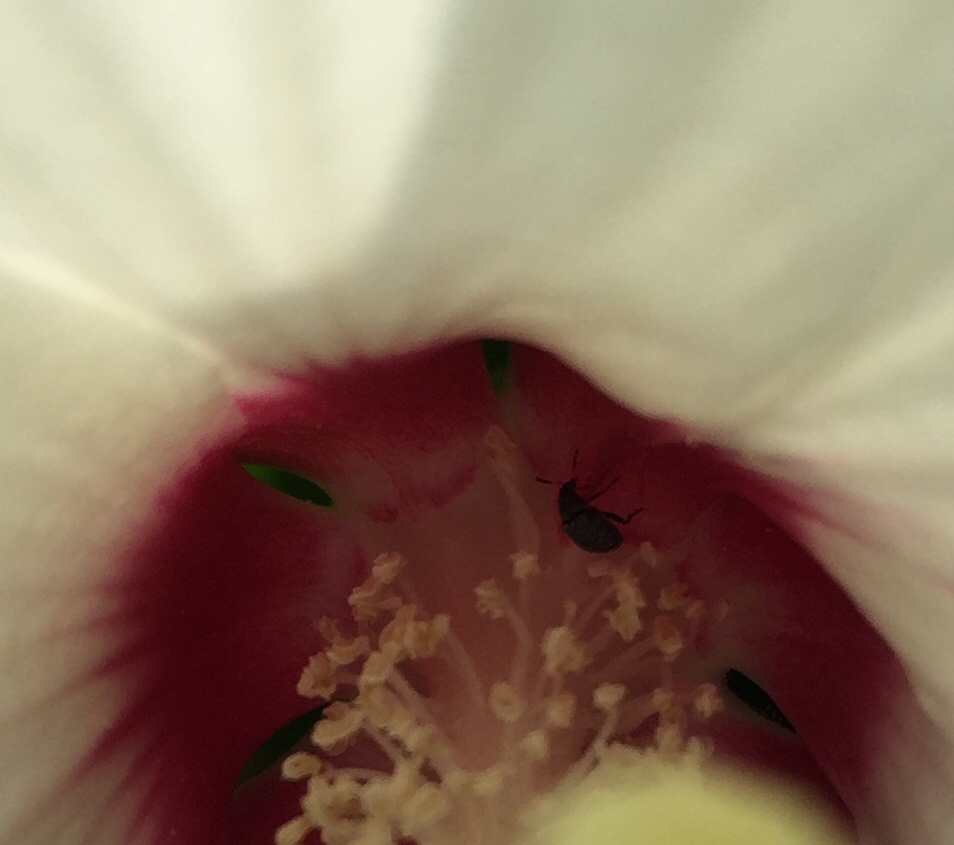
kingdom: Animalia
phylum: Arthropoda
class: Insecta
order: Coleoptera
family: Chrysomelidae
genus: Althaeus
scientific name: Althaeus hibisci
